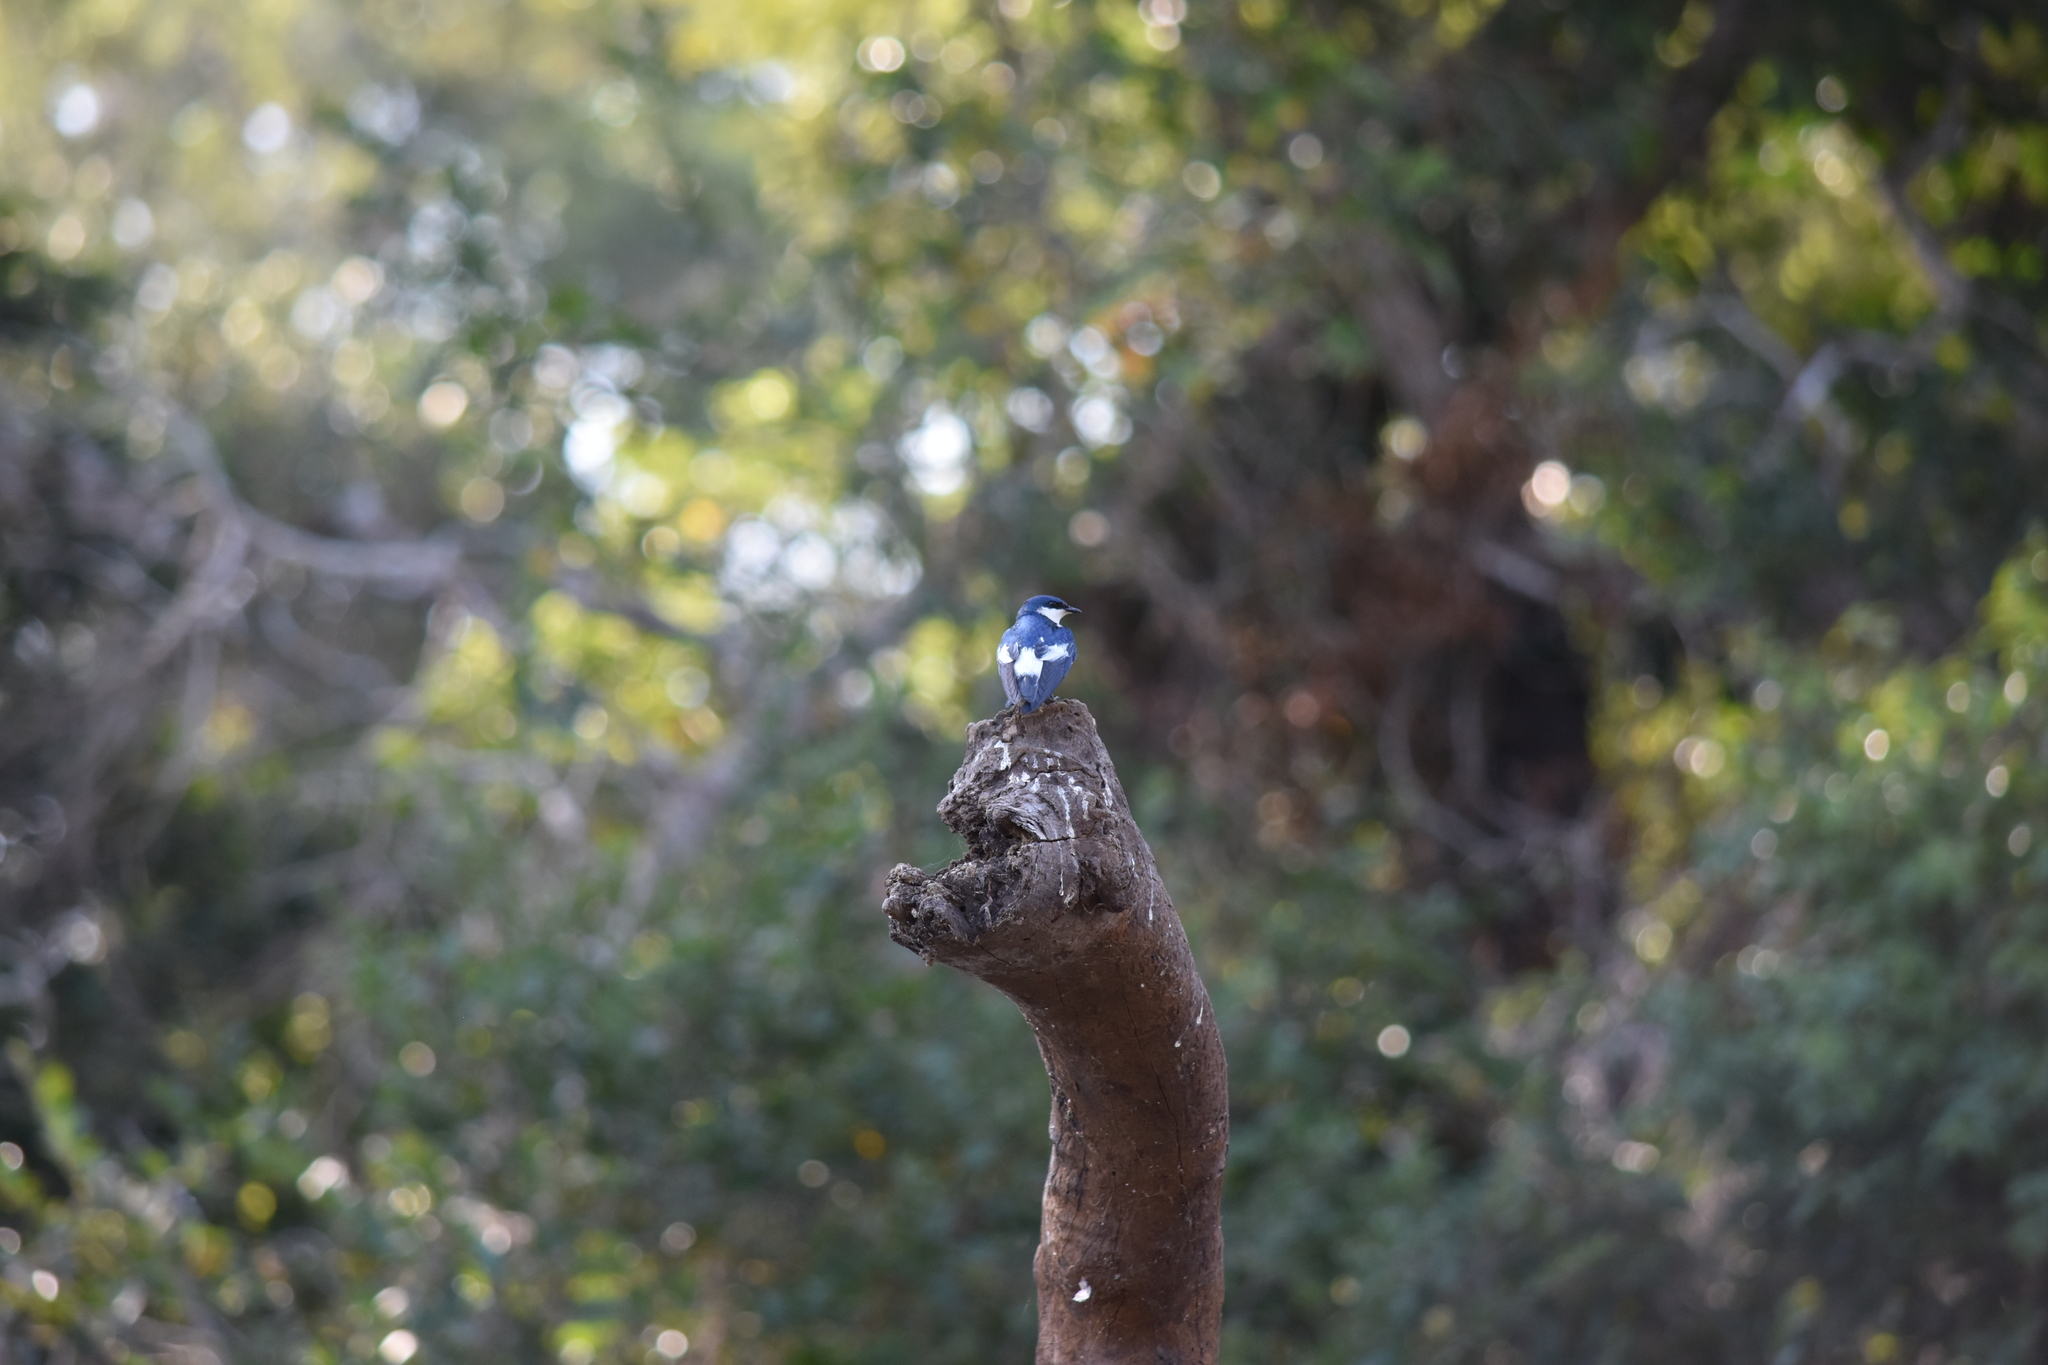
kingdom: Animalia
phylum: Chordata
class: Aves
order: Passeriformes
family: Hirundinidae
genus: Tachycineta
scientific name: Tachycineta albiventer
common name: White-winged swallow
